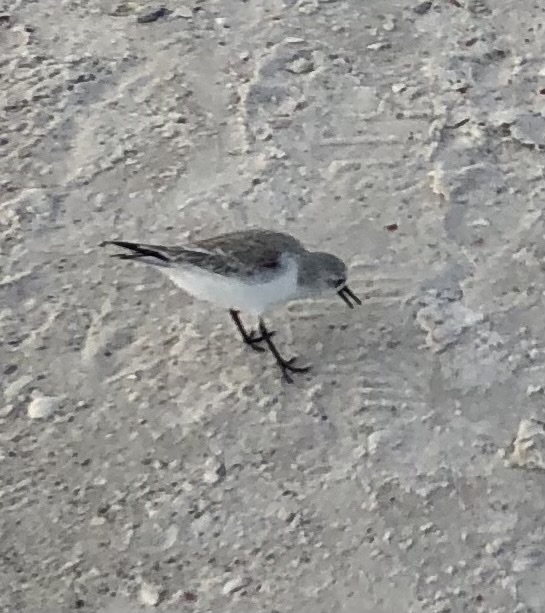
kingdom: Animalia
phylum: Chordata
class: Aves
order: Charadriiformes
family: Scolopacidae
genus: Calidris
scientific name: Calidris alba
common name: Sanderling
